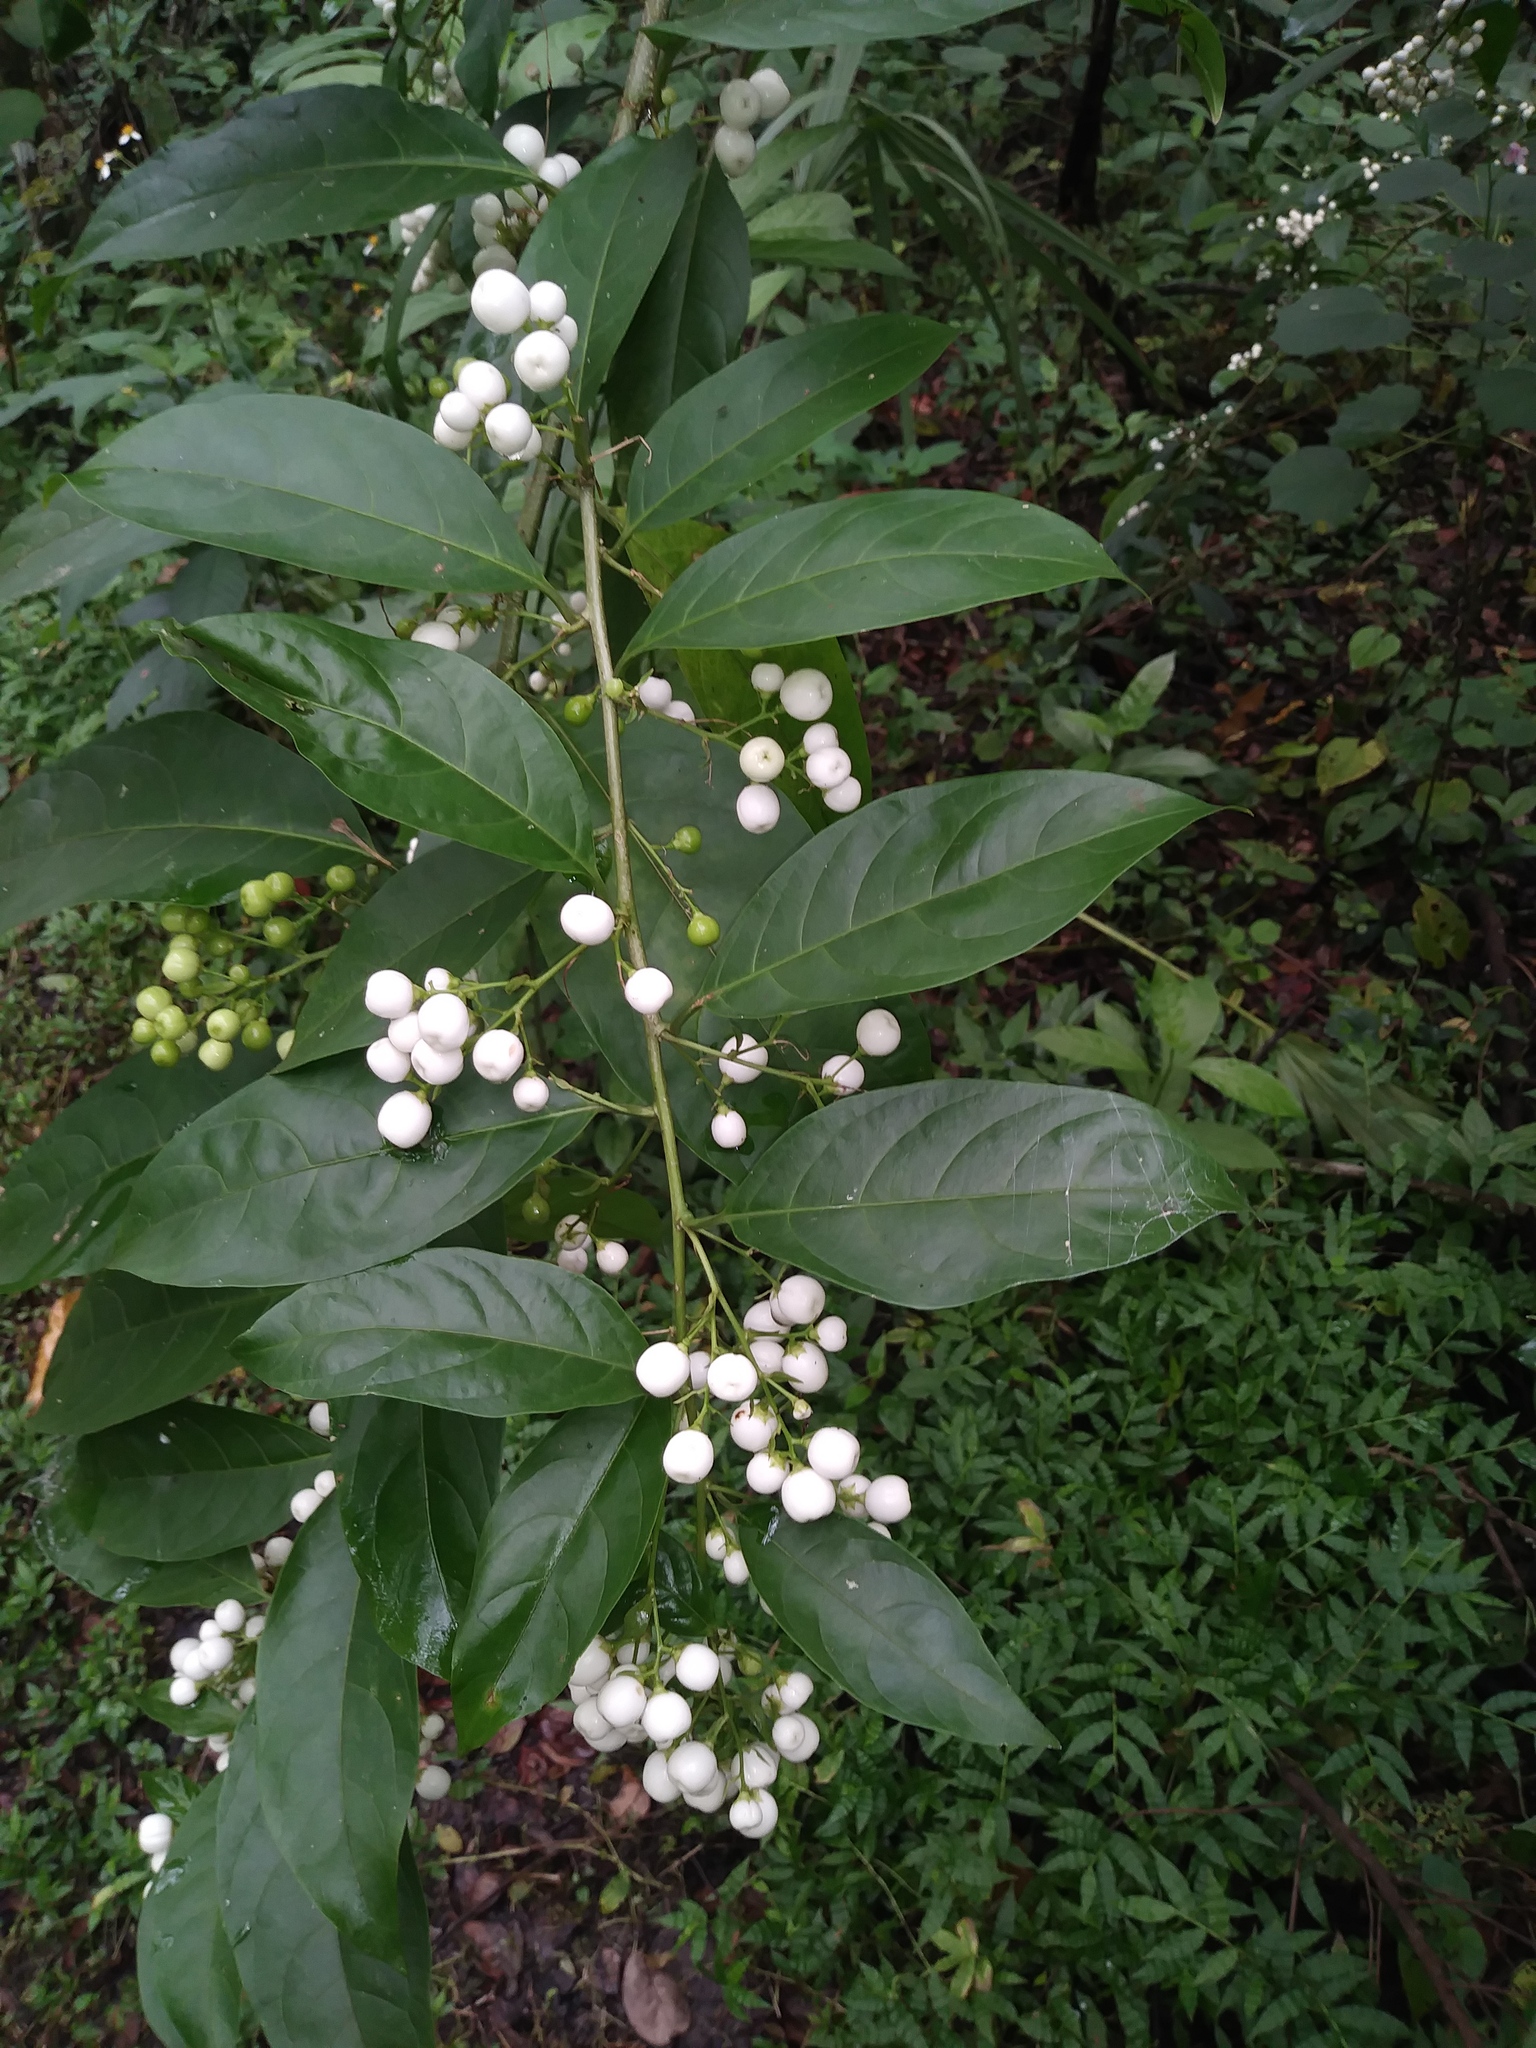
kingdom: Plantae
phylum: Tracheophyta
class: Magnoliopsida
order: Solanales
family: Solanaceae
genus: Cestrum
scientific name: Cestrum nocturnum
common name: Night jessamine
